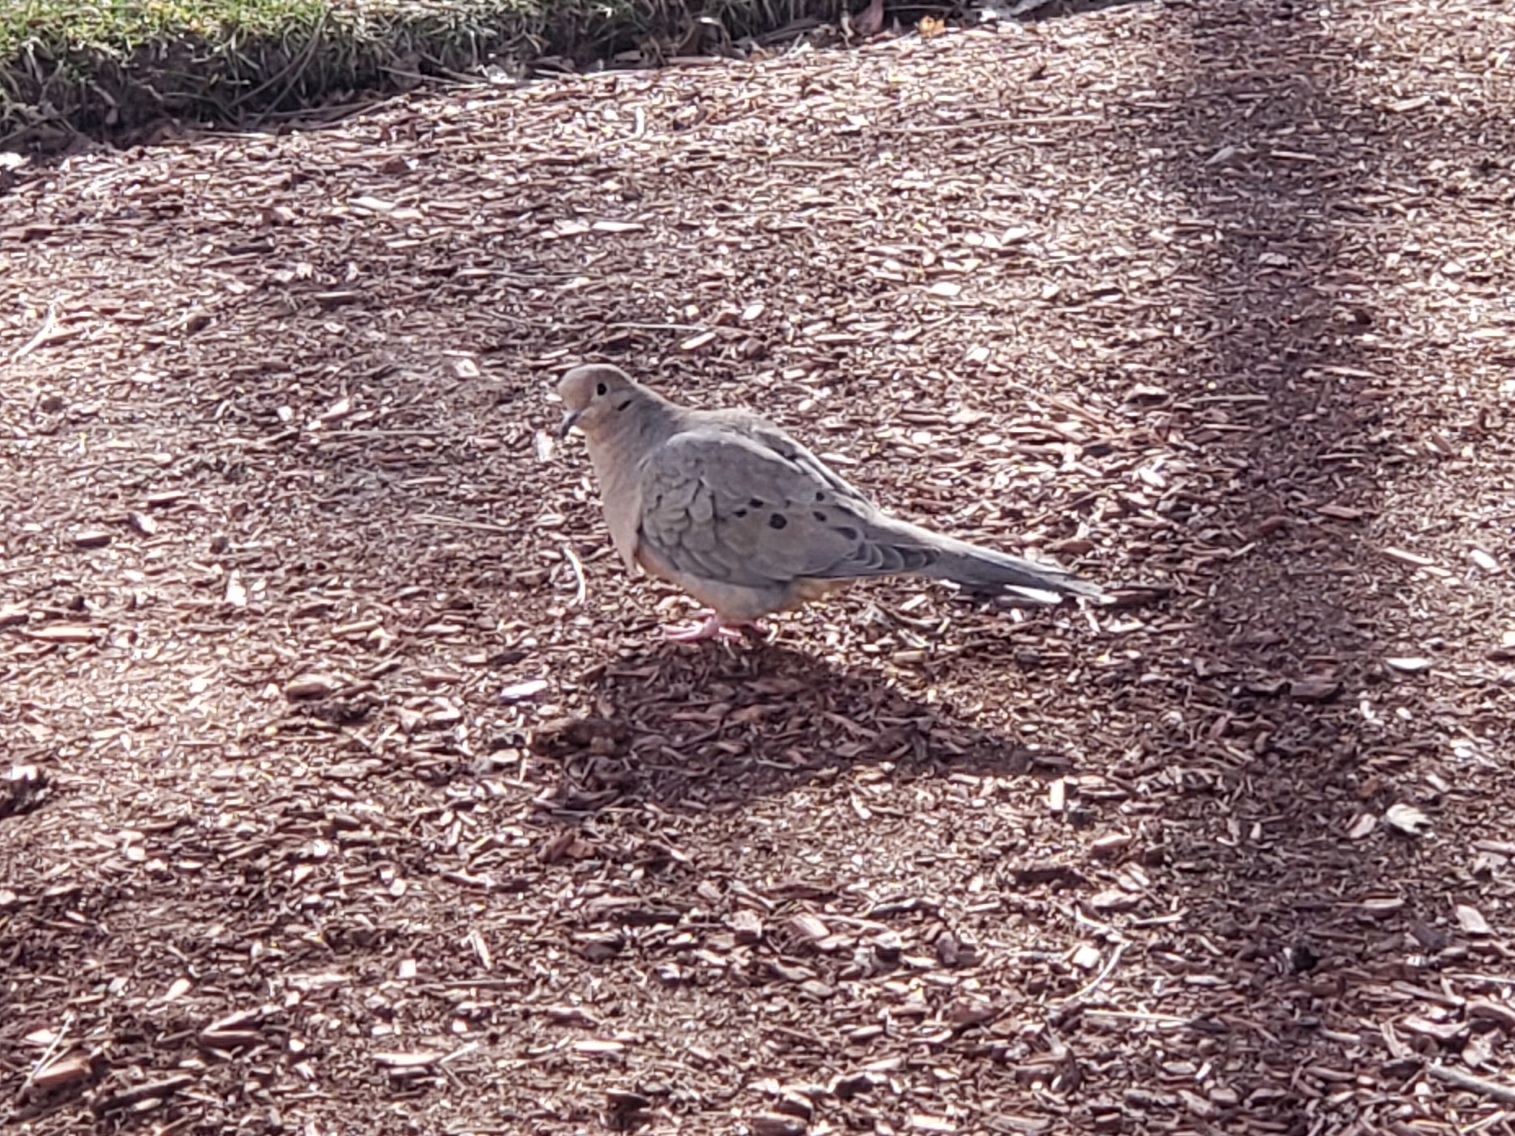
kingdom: Animalia
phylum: Chordata
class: Aves
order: Columbiformes
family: Columbidae
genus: Zenaida
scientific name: Zenaida macroura
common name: Mourning dove
